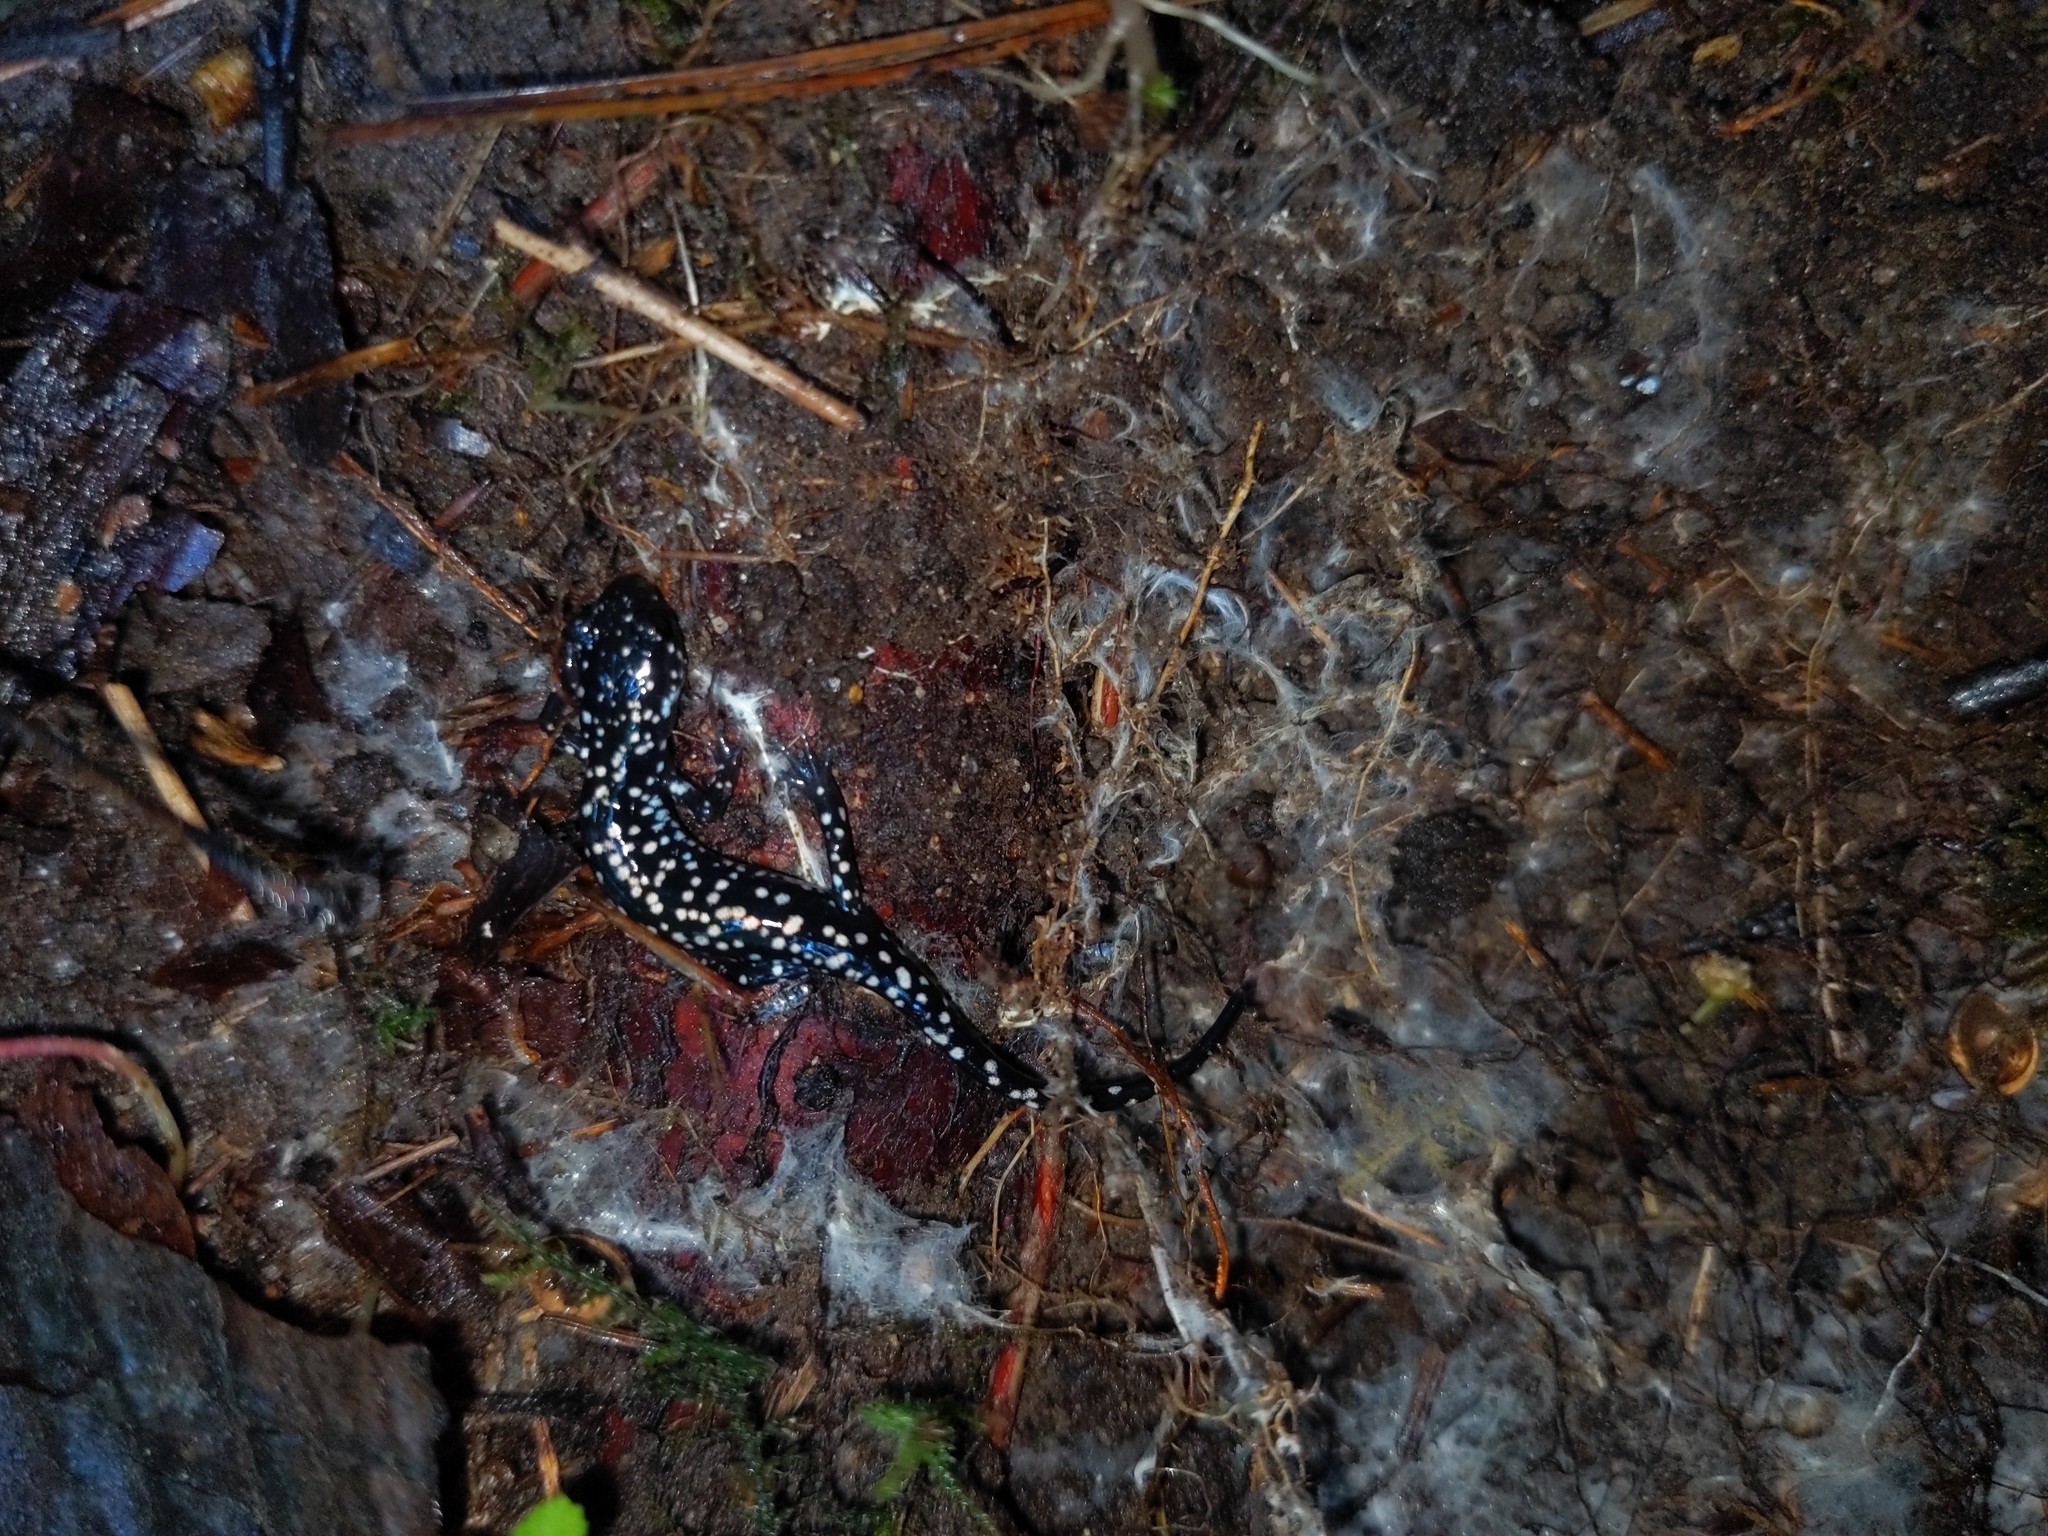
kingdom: Animalia
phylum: Chordata
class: Amphibia
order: Caudata
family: Plethodontidae
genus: Plethodon
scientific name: Plethodon glutinosus
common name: Northern slimy salamander
